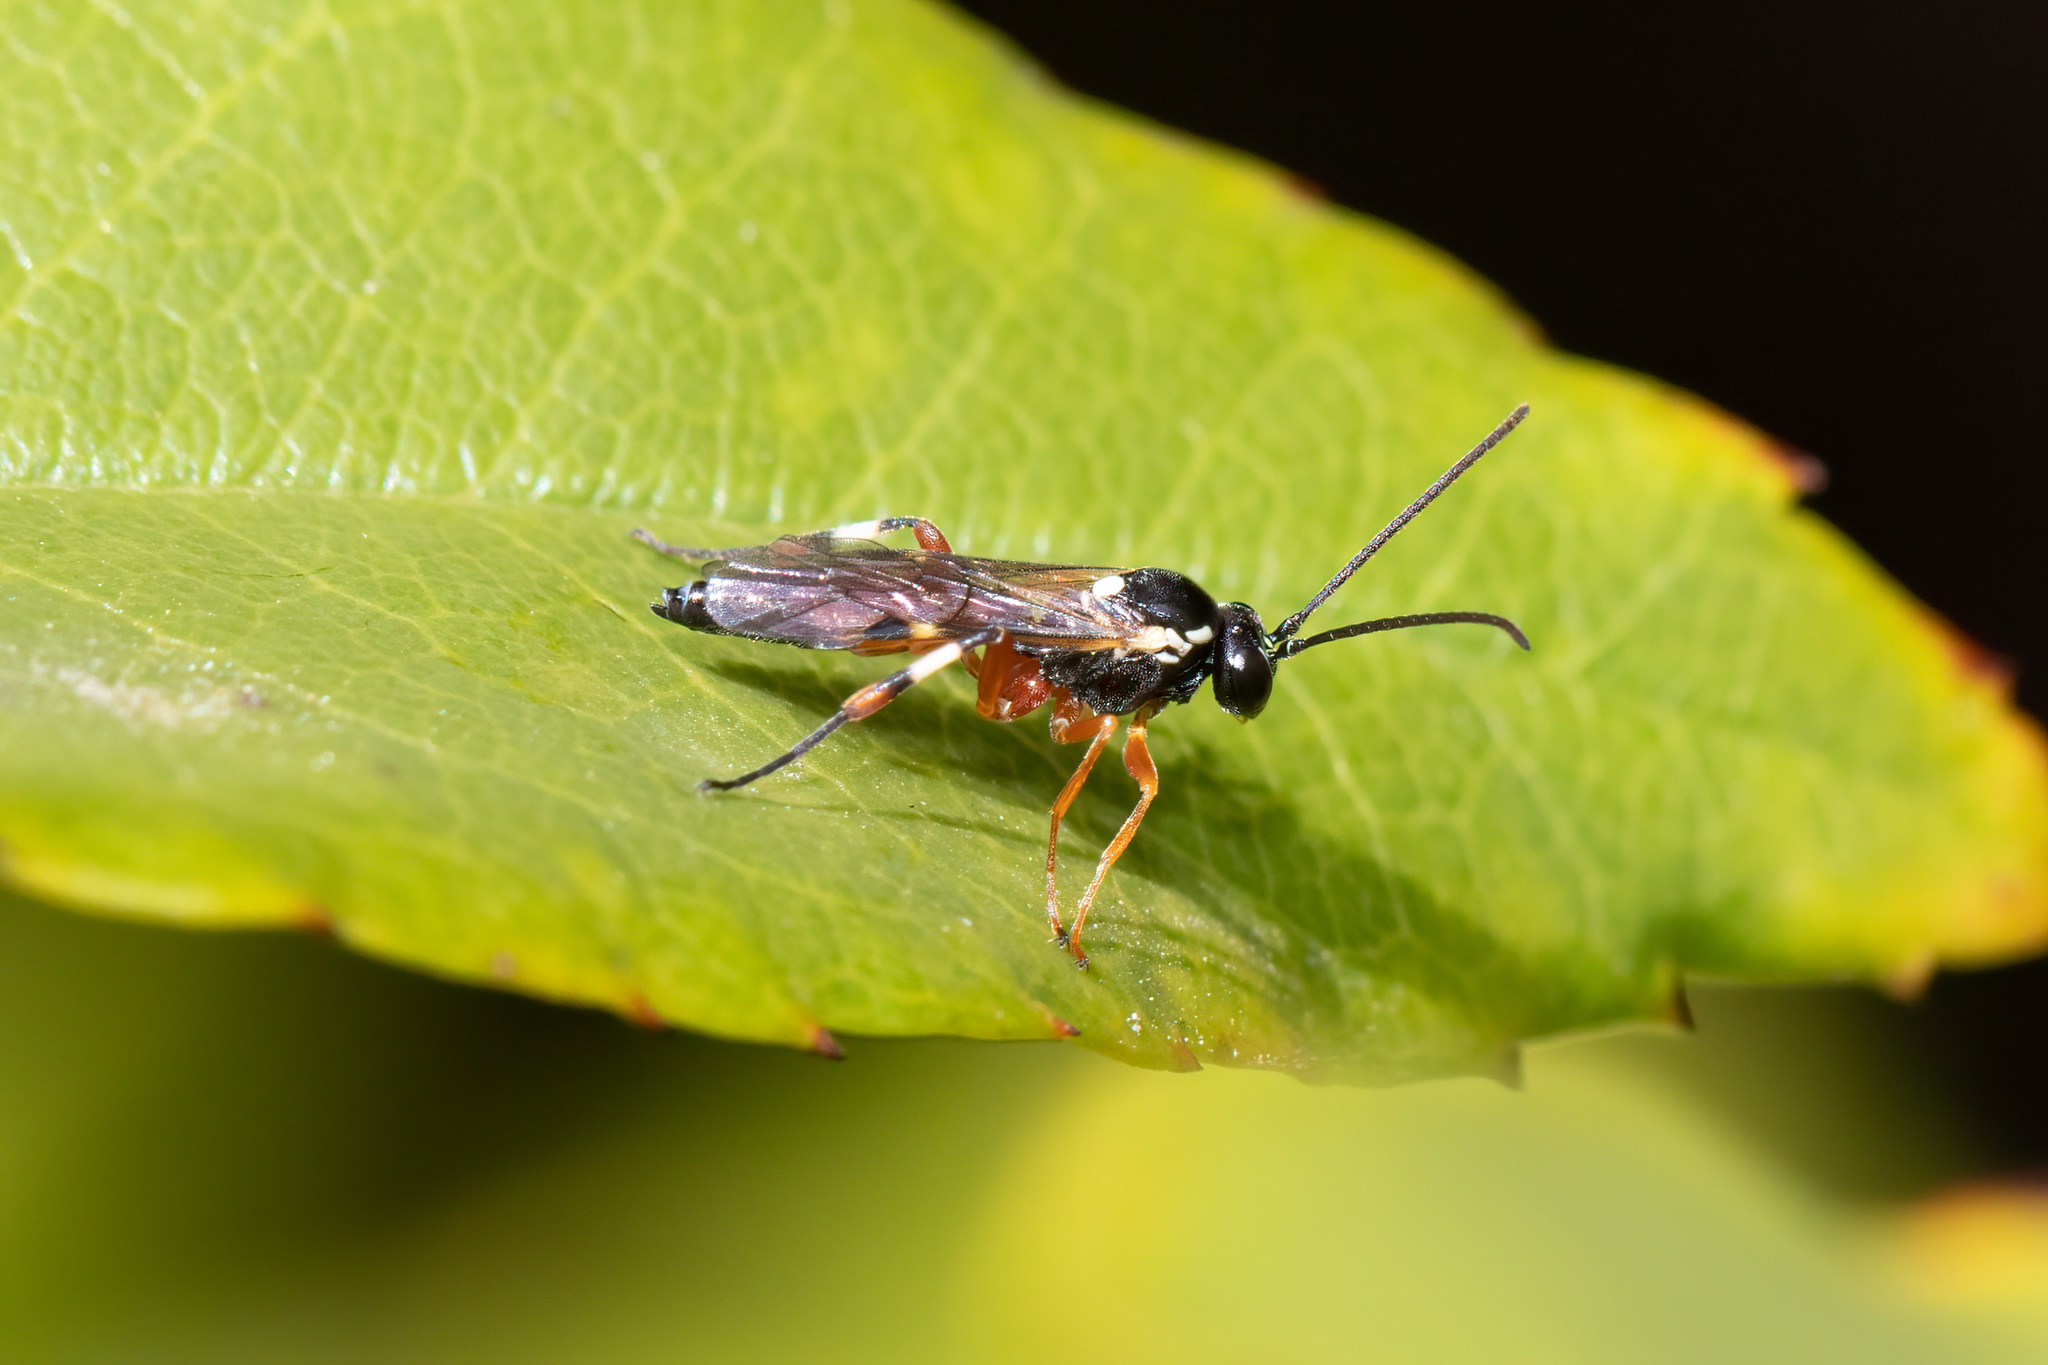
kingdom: Animalia
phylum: Arthropoda
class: Insecta
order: Hymenoptera
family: Ichneumonidae
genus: Diplazon
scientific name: Diplazon laetatorius
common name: Parasitoid wasp
